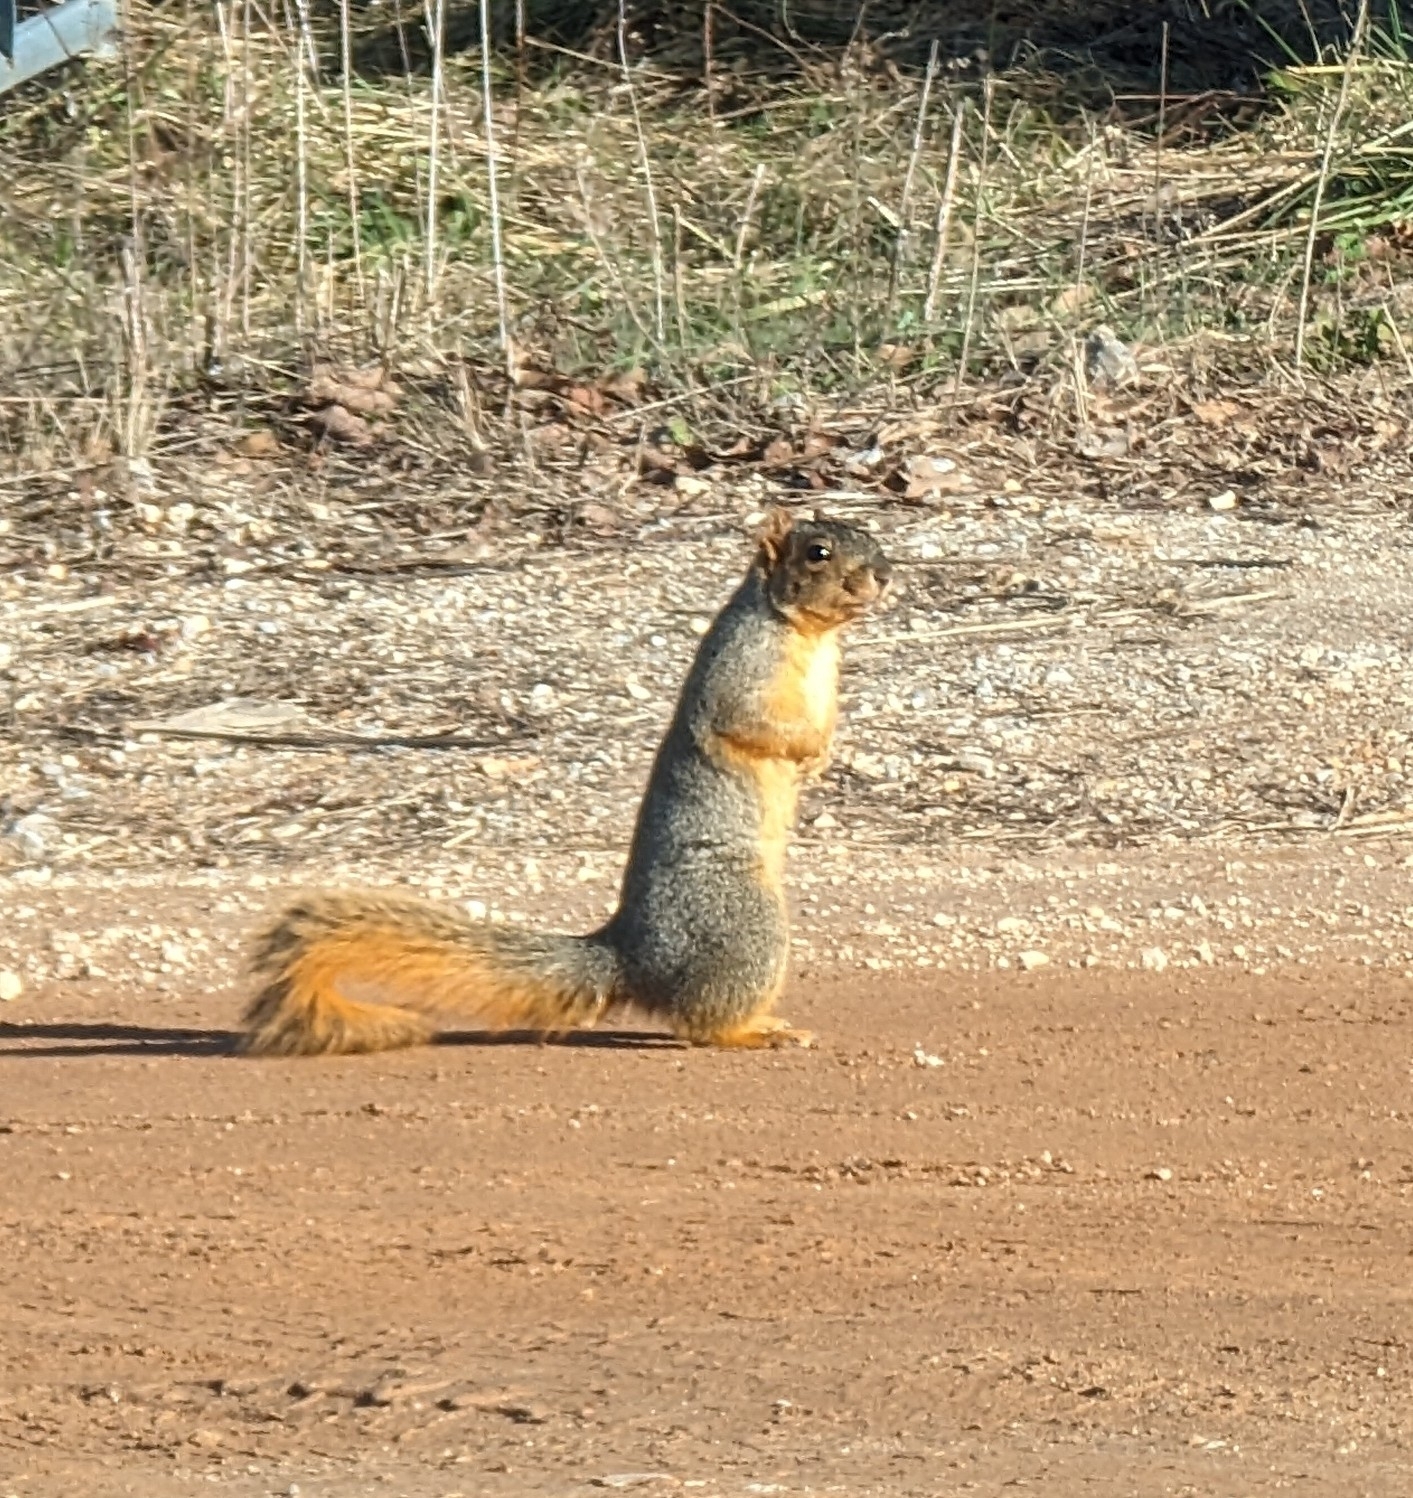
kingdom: Animalia
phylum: Chordata
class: Mammalia
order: Rodentia
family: Sciuridae
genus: Sciurus
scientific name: Sciurus niger
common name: Fox squirrel
